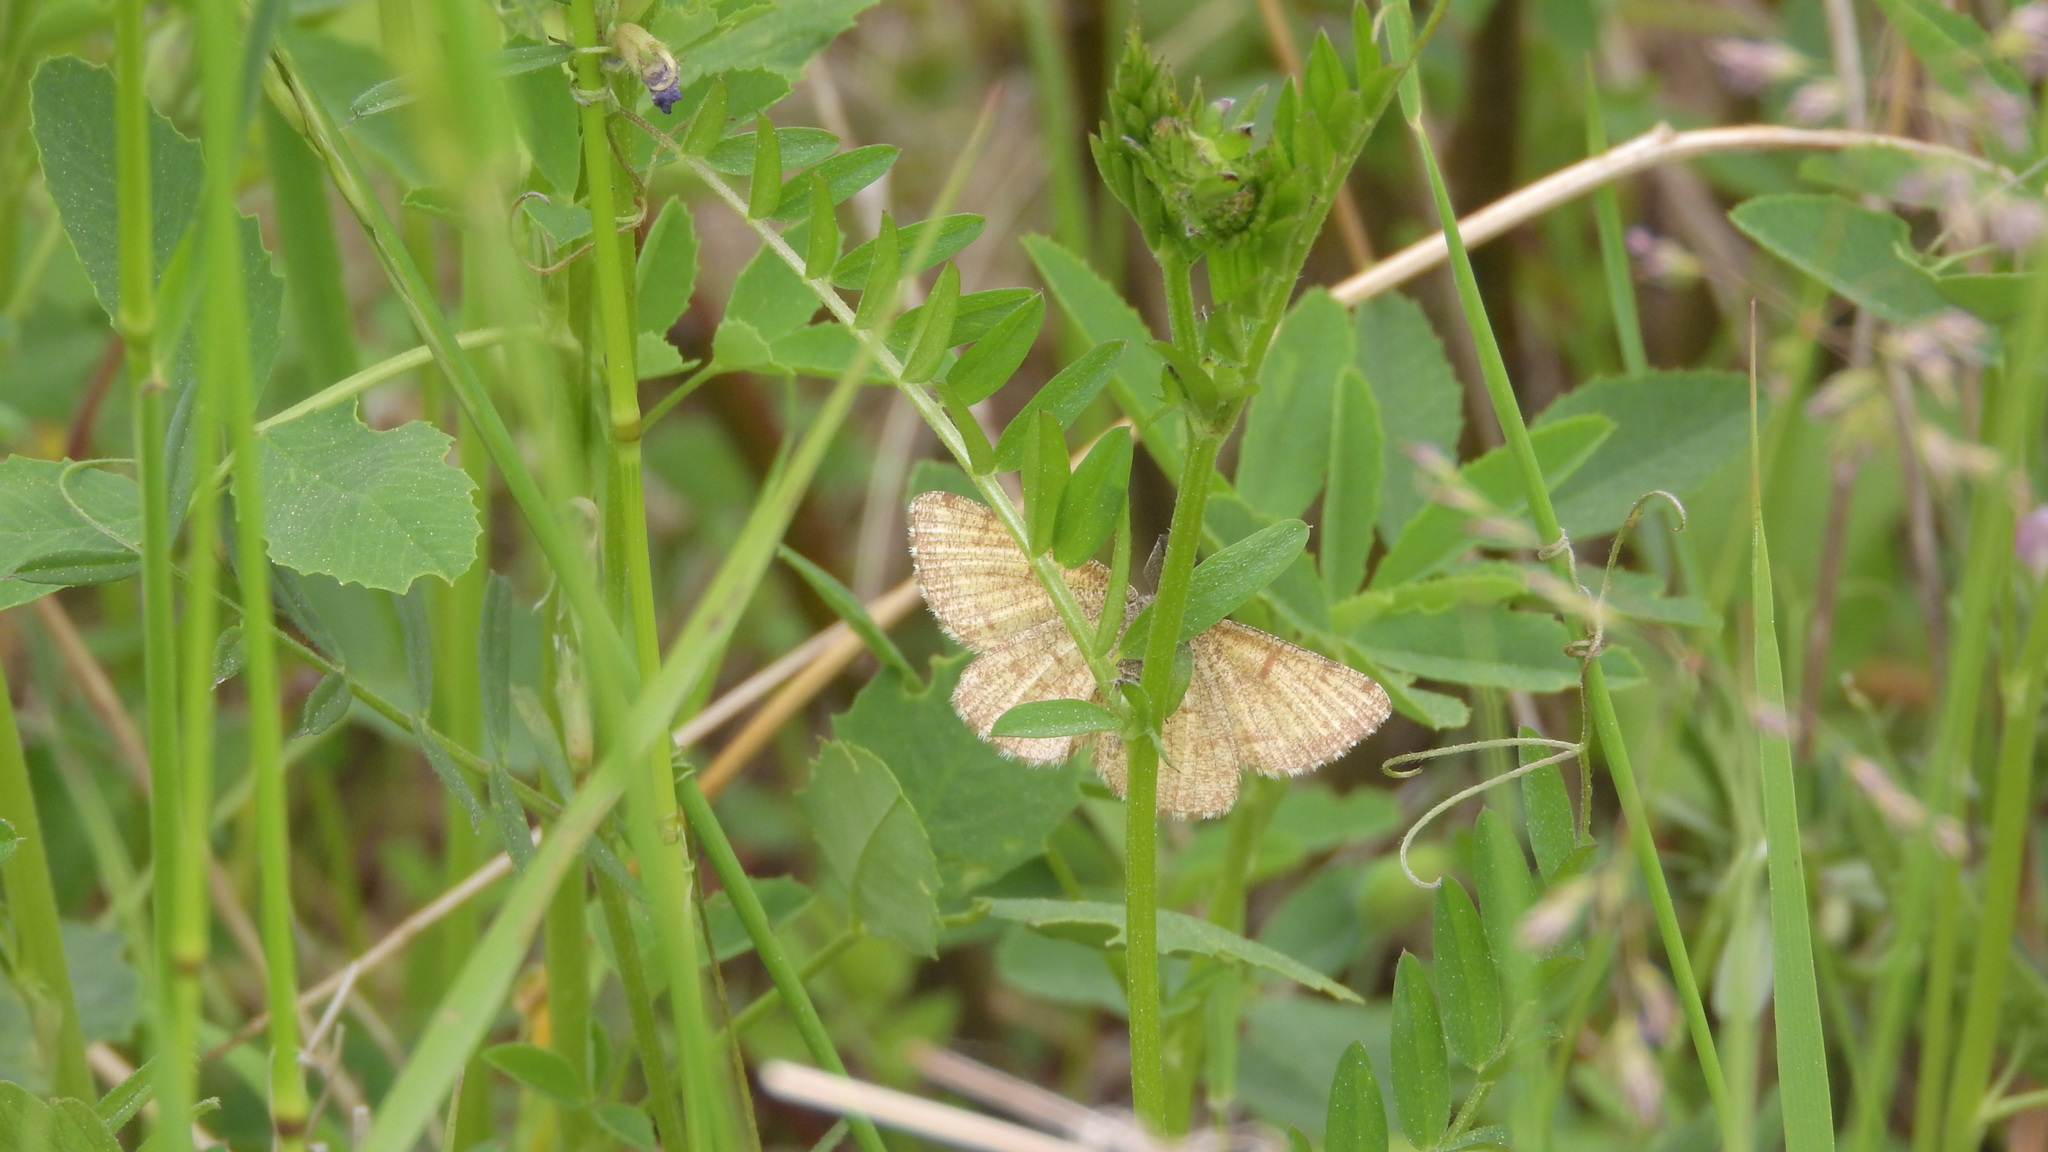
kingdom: Animalia
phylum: Arthropoda
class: Insecta
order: Lepidoptera
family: Geometridae
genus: Ematurga
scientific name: Ematurga atomaria
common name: Common heath
